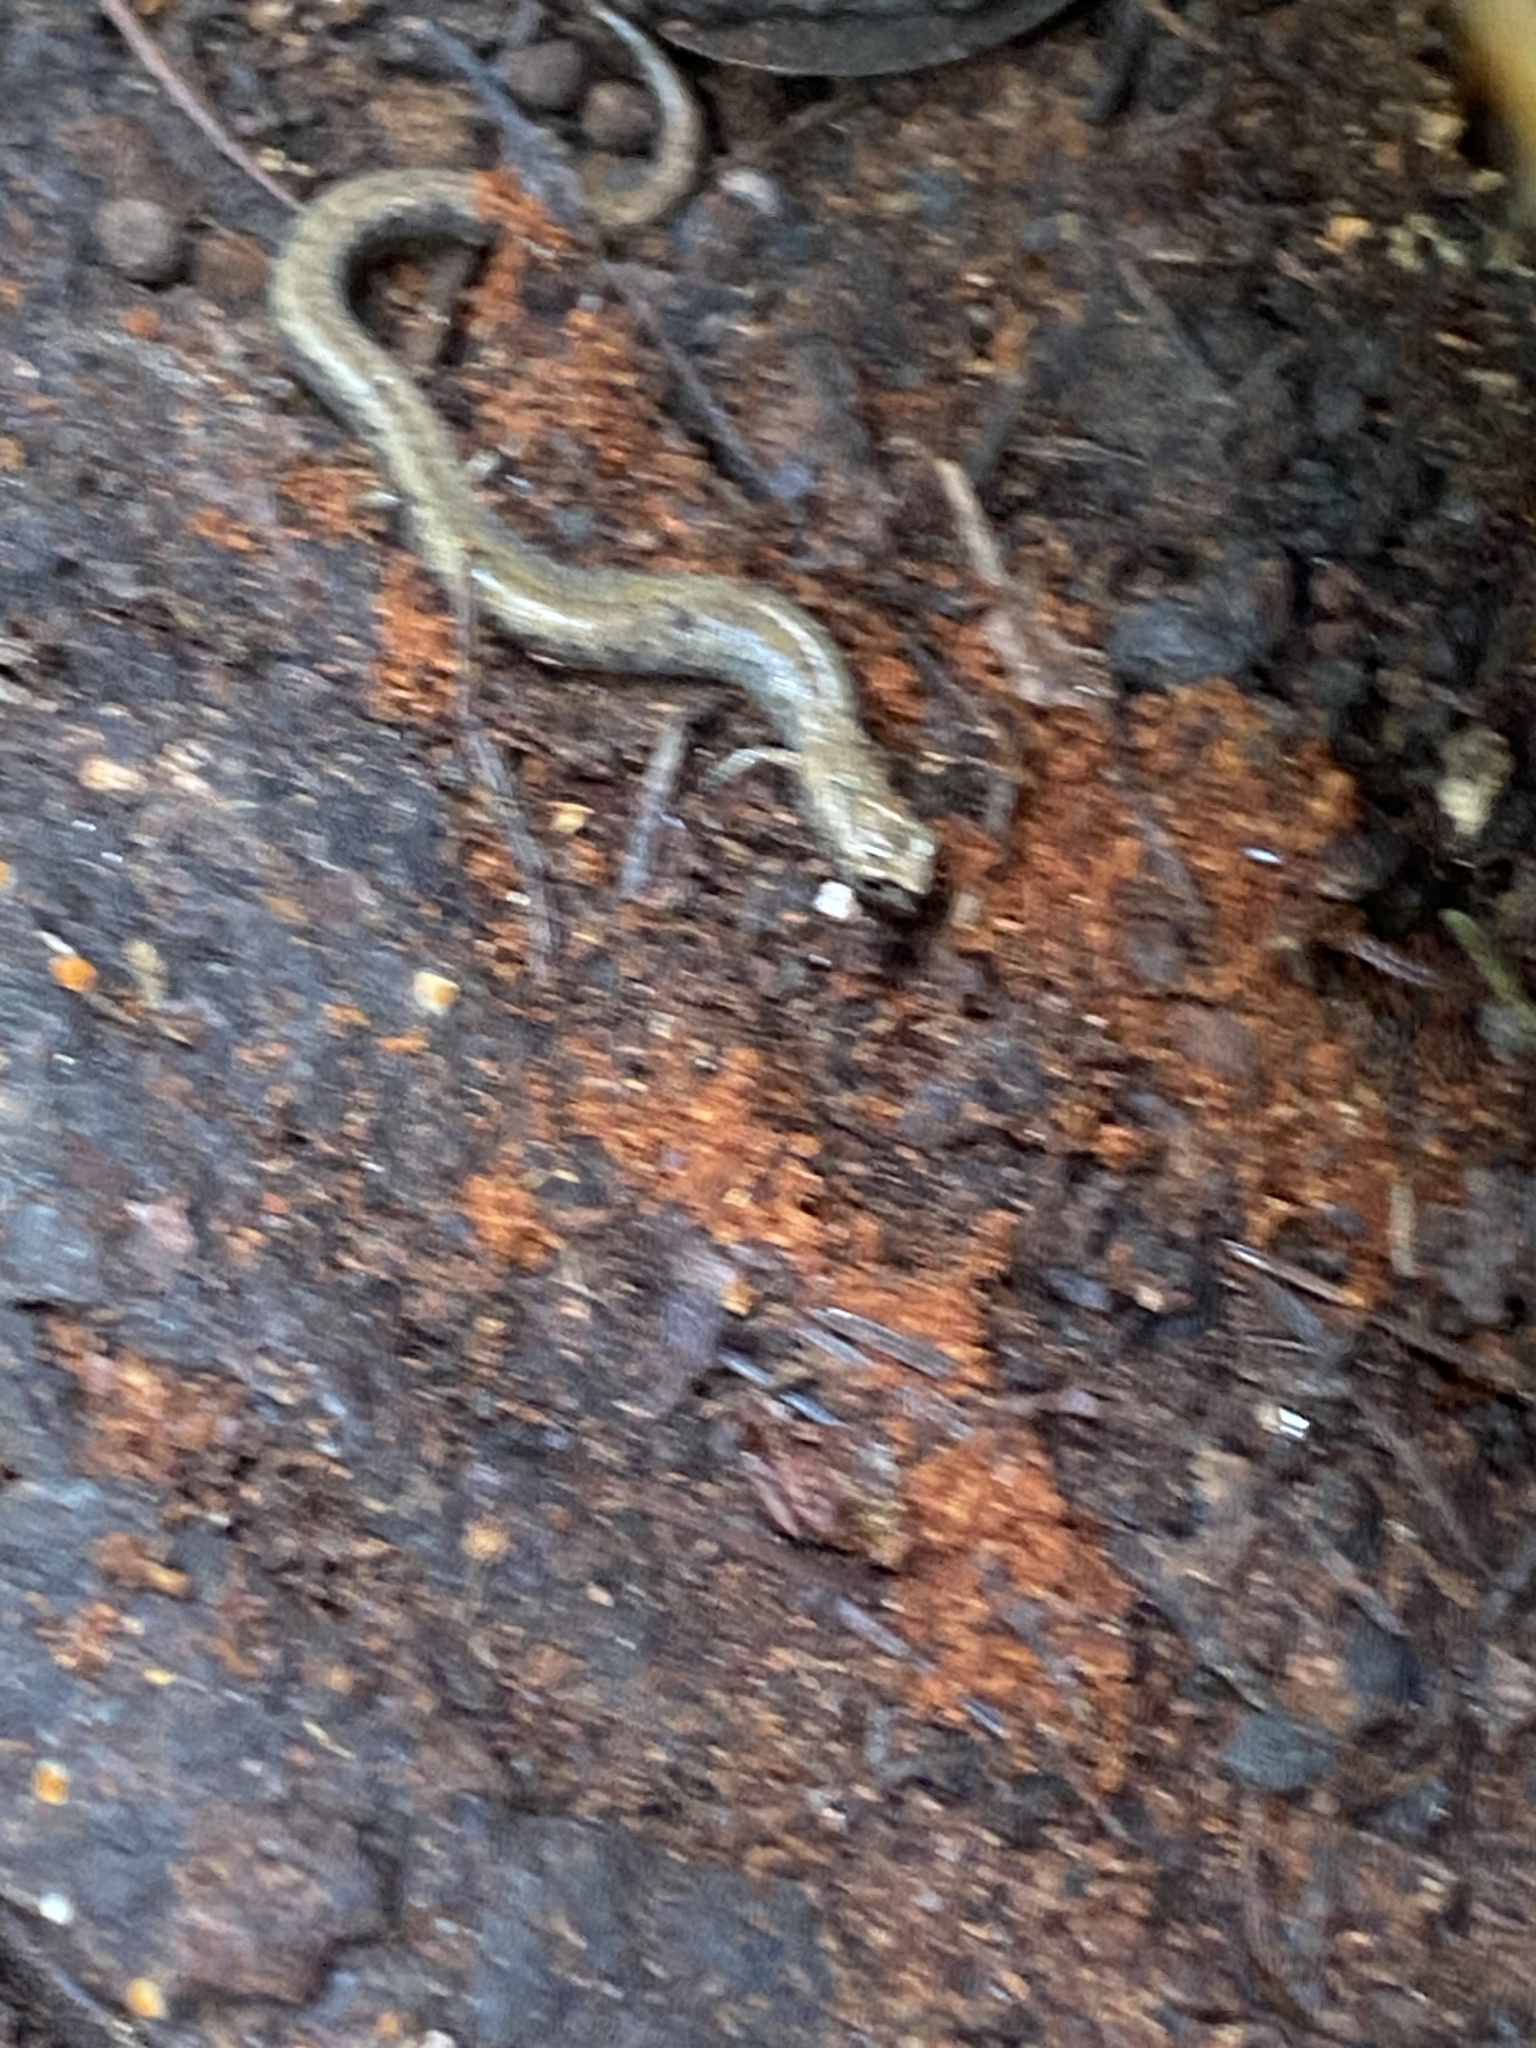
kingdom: Animalia
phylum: Chordata
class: Amphibia
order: Caudata
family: Plethodontidae
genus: Batrachoseps
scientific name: Batrachoseps attenuatus
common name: California slender salamander
